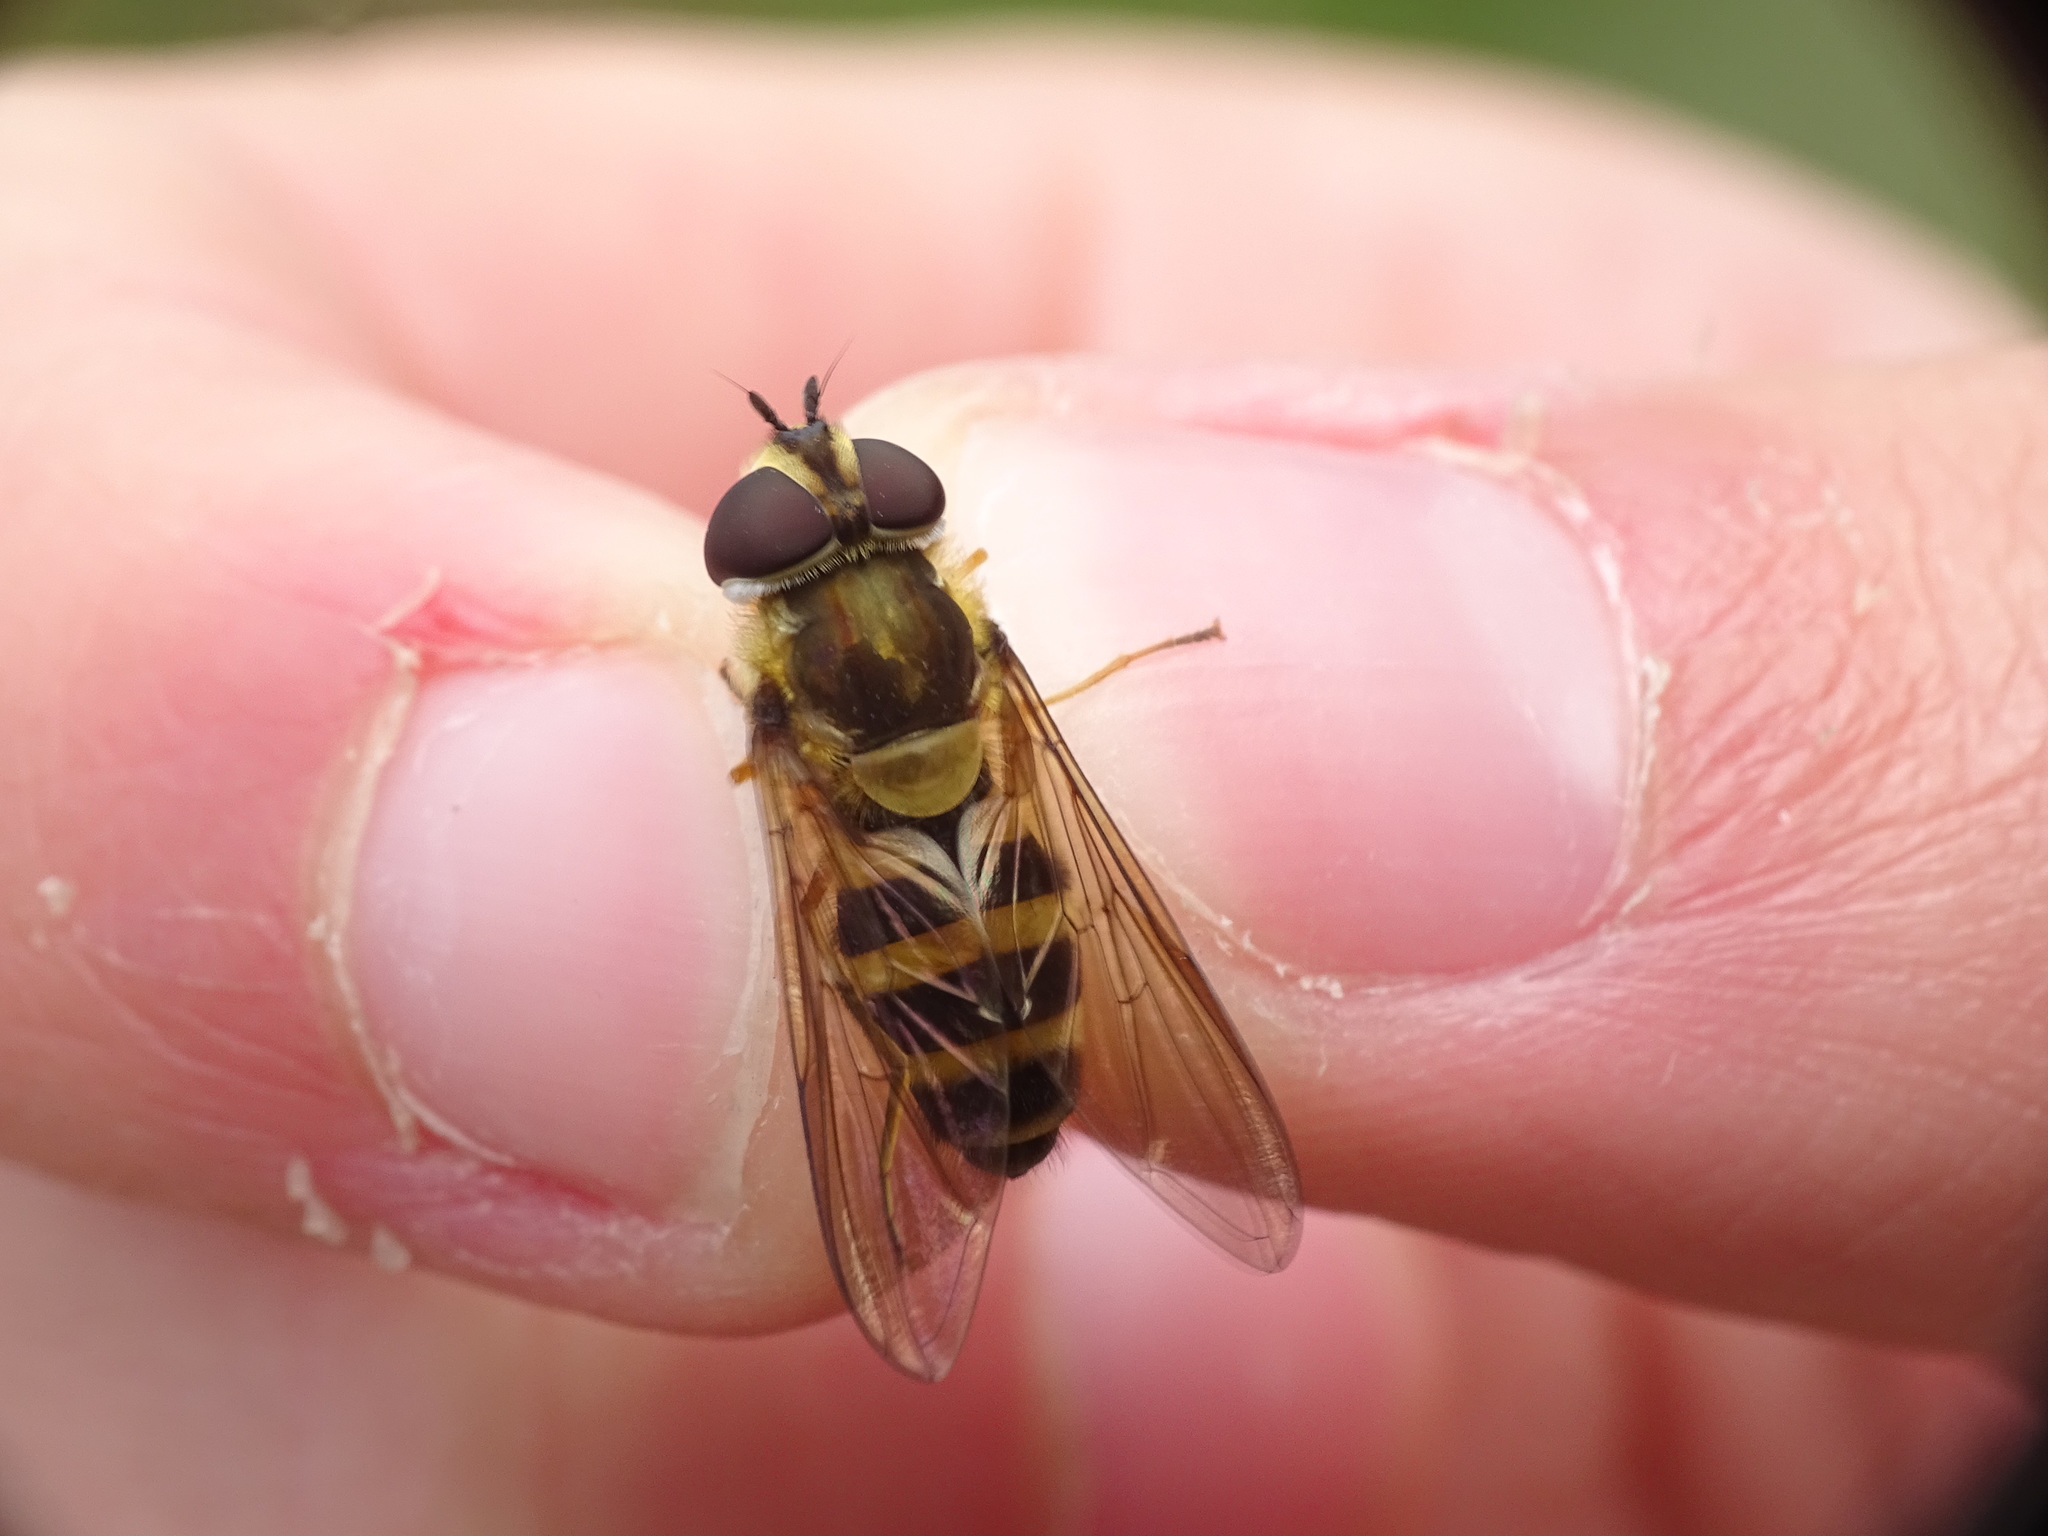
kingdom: Animalia
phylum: Arthropoda
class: Insecta
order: Diptera
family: Syrphidae
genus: Epistrophe
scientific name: Epistrophe grossulariae
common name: Black-horned smoothtail
